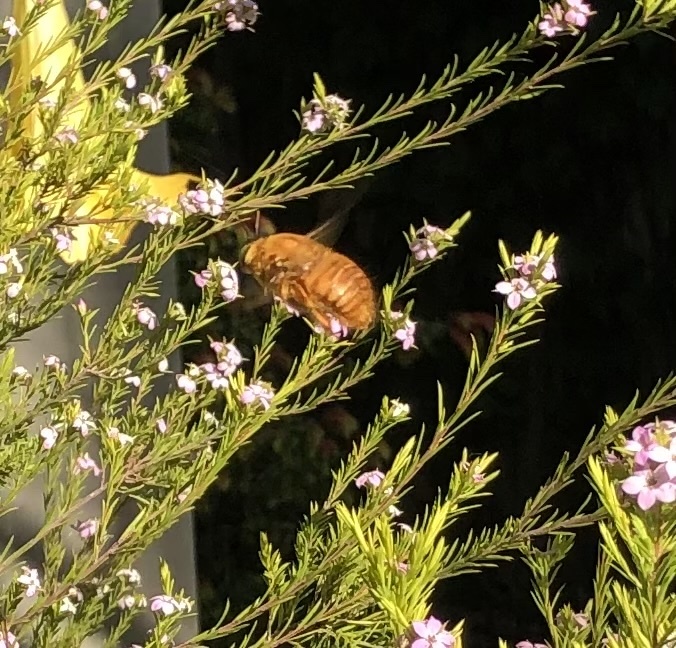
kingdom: Animalia
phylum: Arthropoda
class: Insecta
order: Hymenoptera
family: Apidae
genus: Xylocopa
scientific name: Xylocopa sonorina
